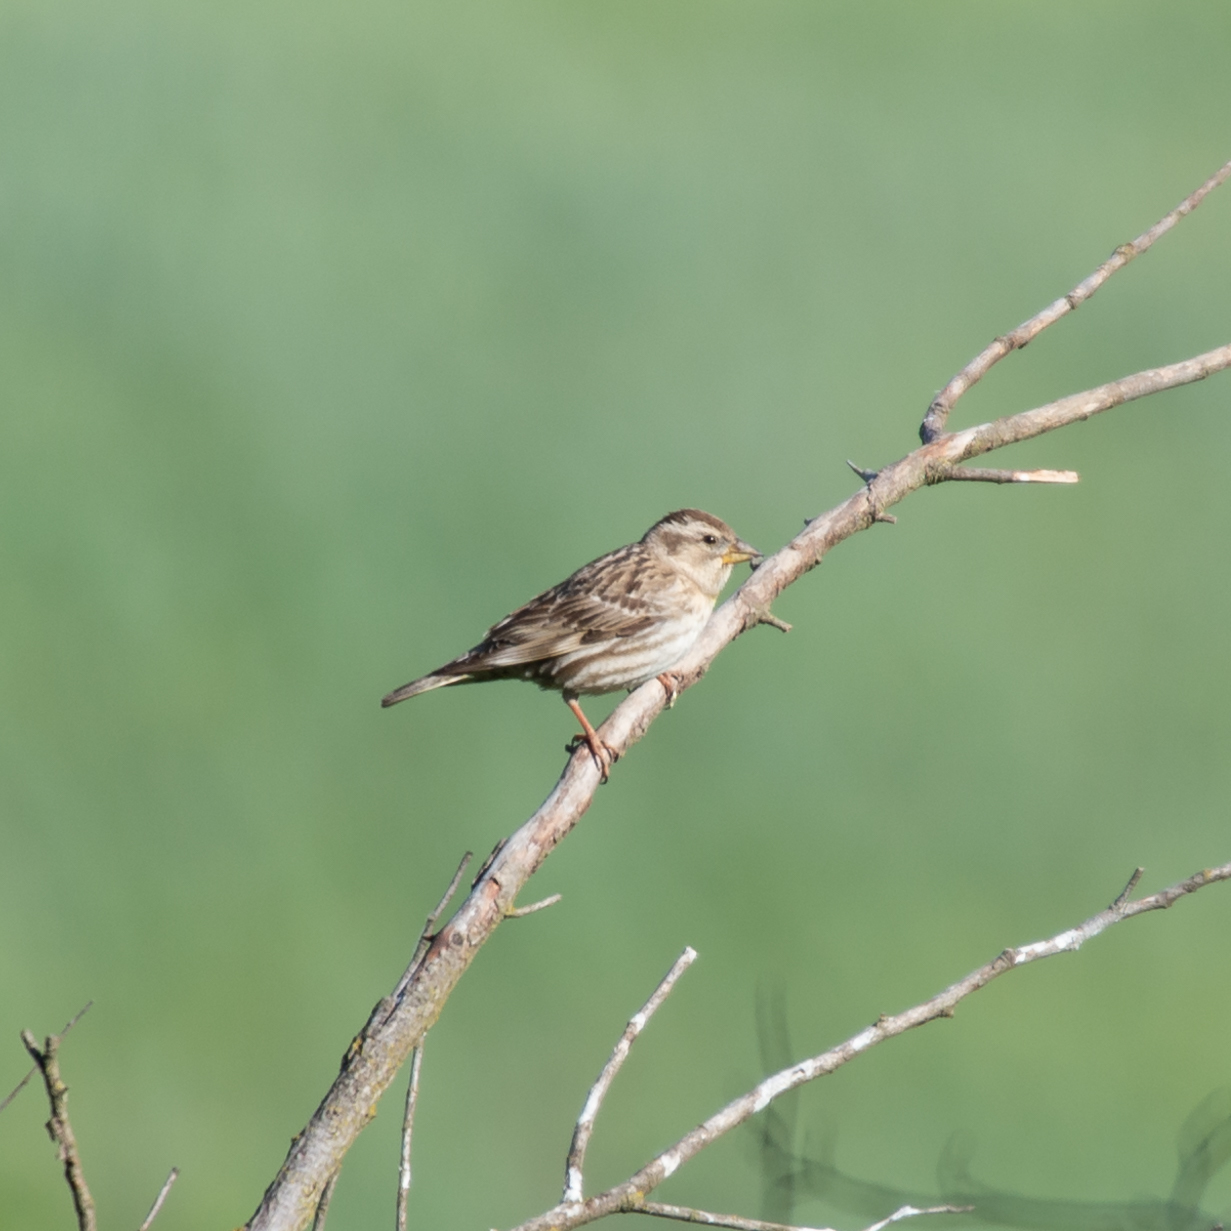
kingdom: Animalia
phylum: Chordata
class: Aves
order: Passeriformes
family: Passeridae
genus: Petronia
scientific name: Petronia petronia
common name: Rock sparrow
